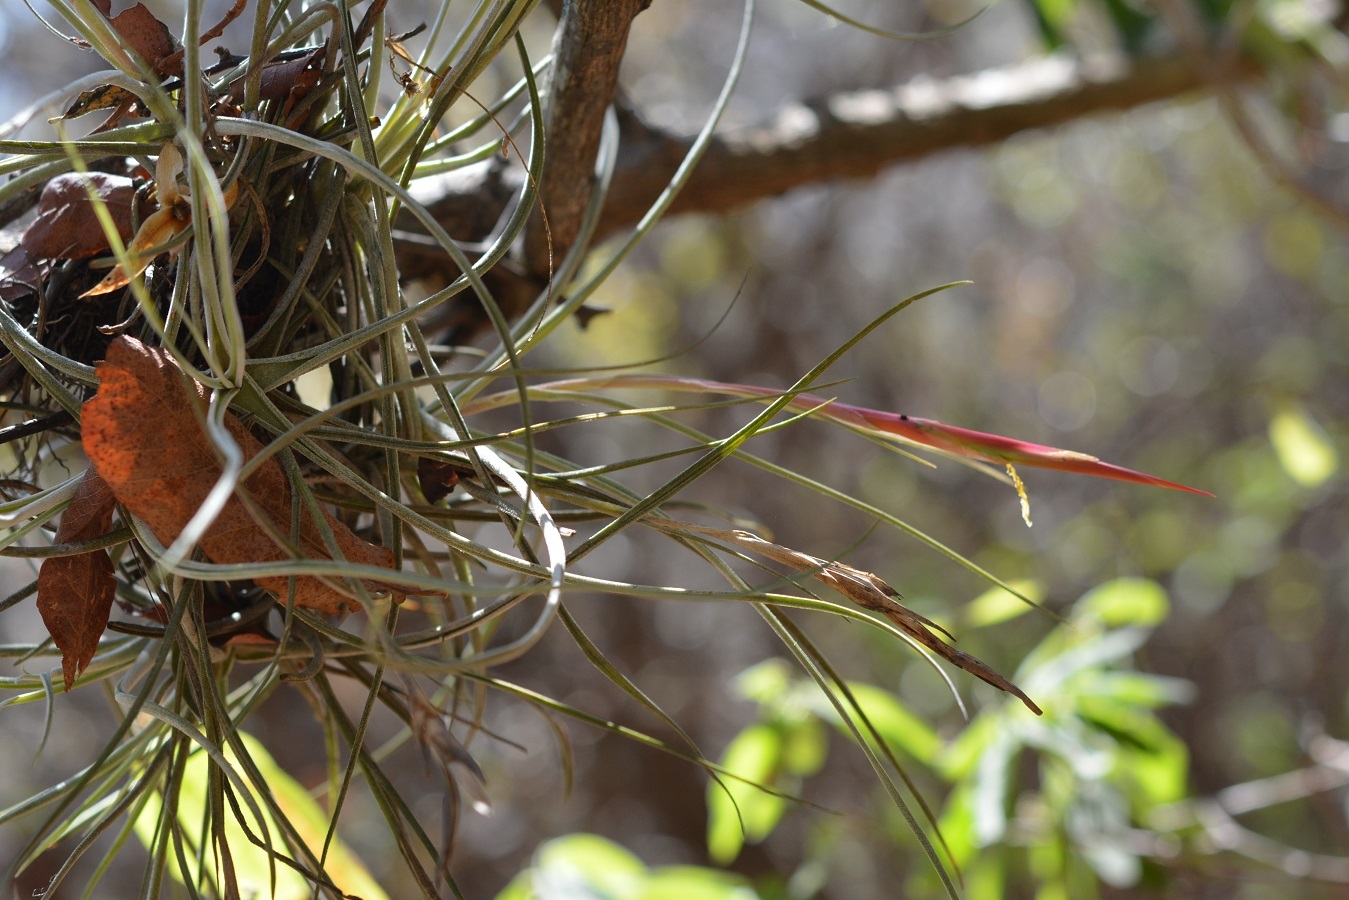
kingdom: Plantae
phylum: Tracheophyta
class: Liliopsida
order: Poales
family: Bromeliaceae
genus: Tillandsia
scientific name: Tillandsia schiedeana
